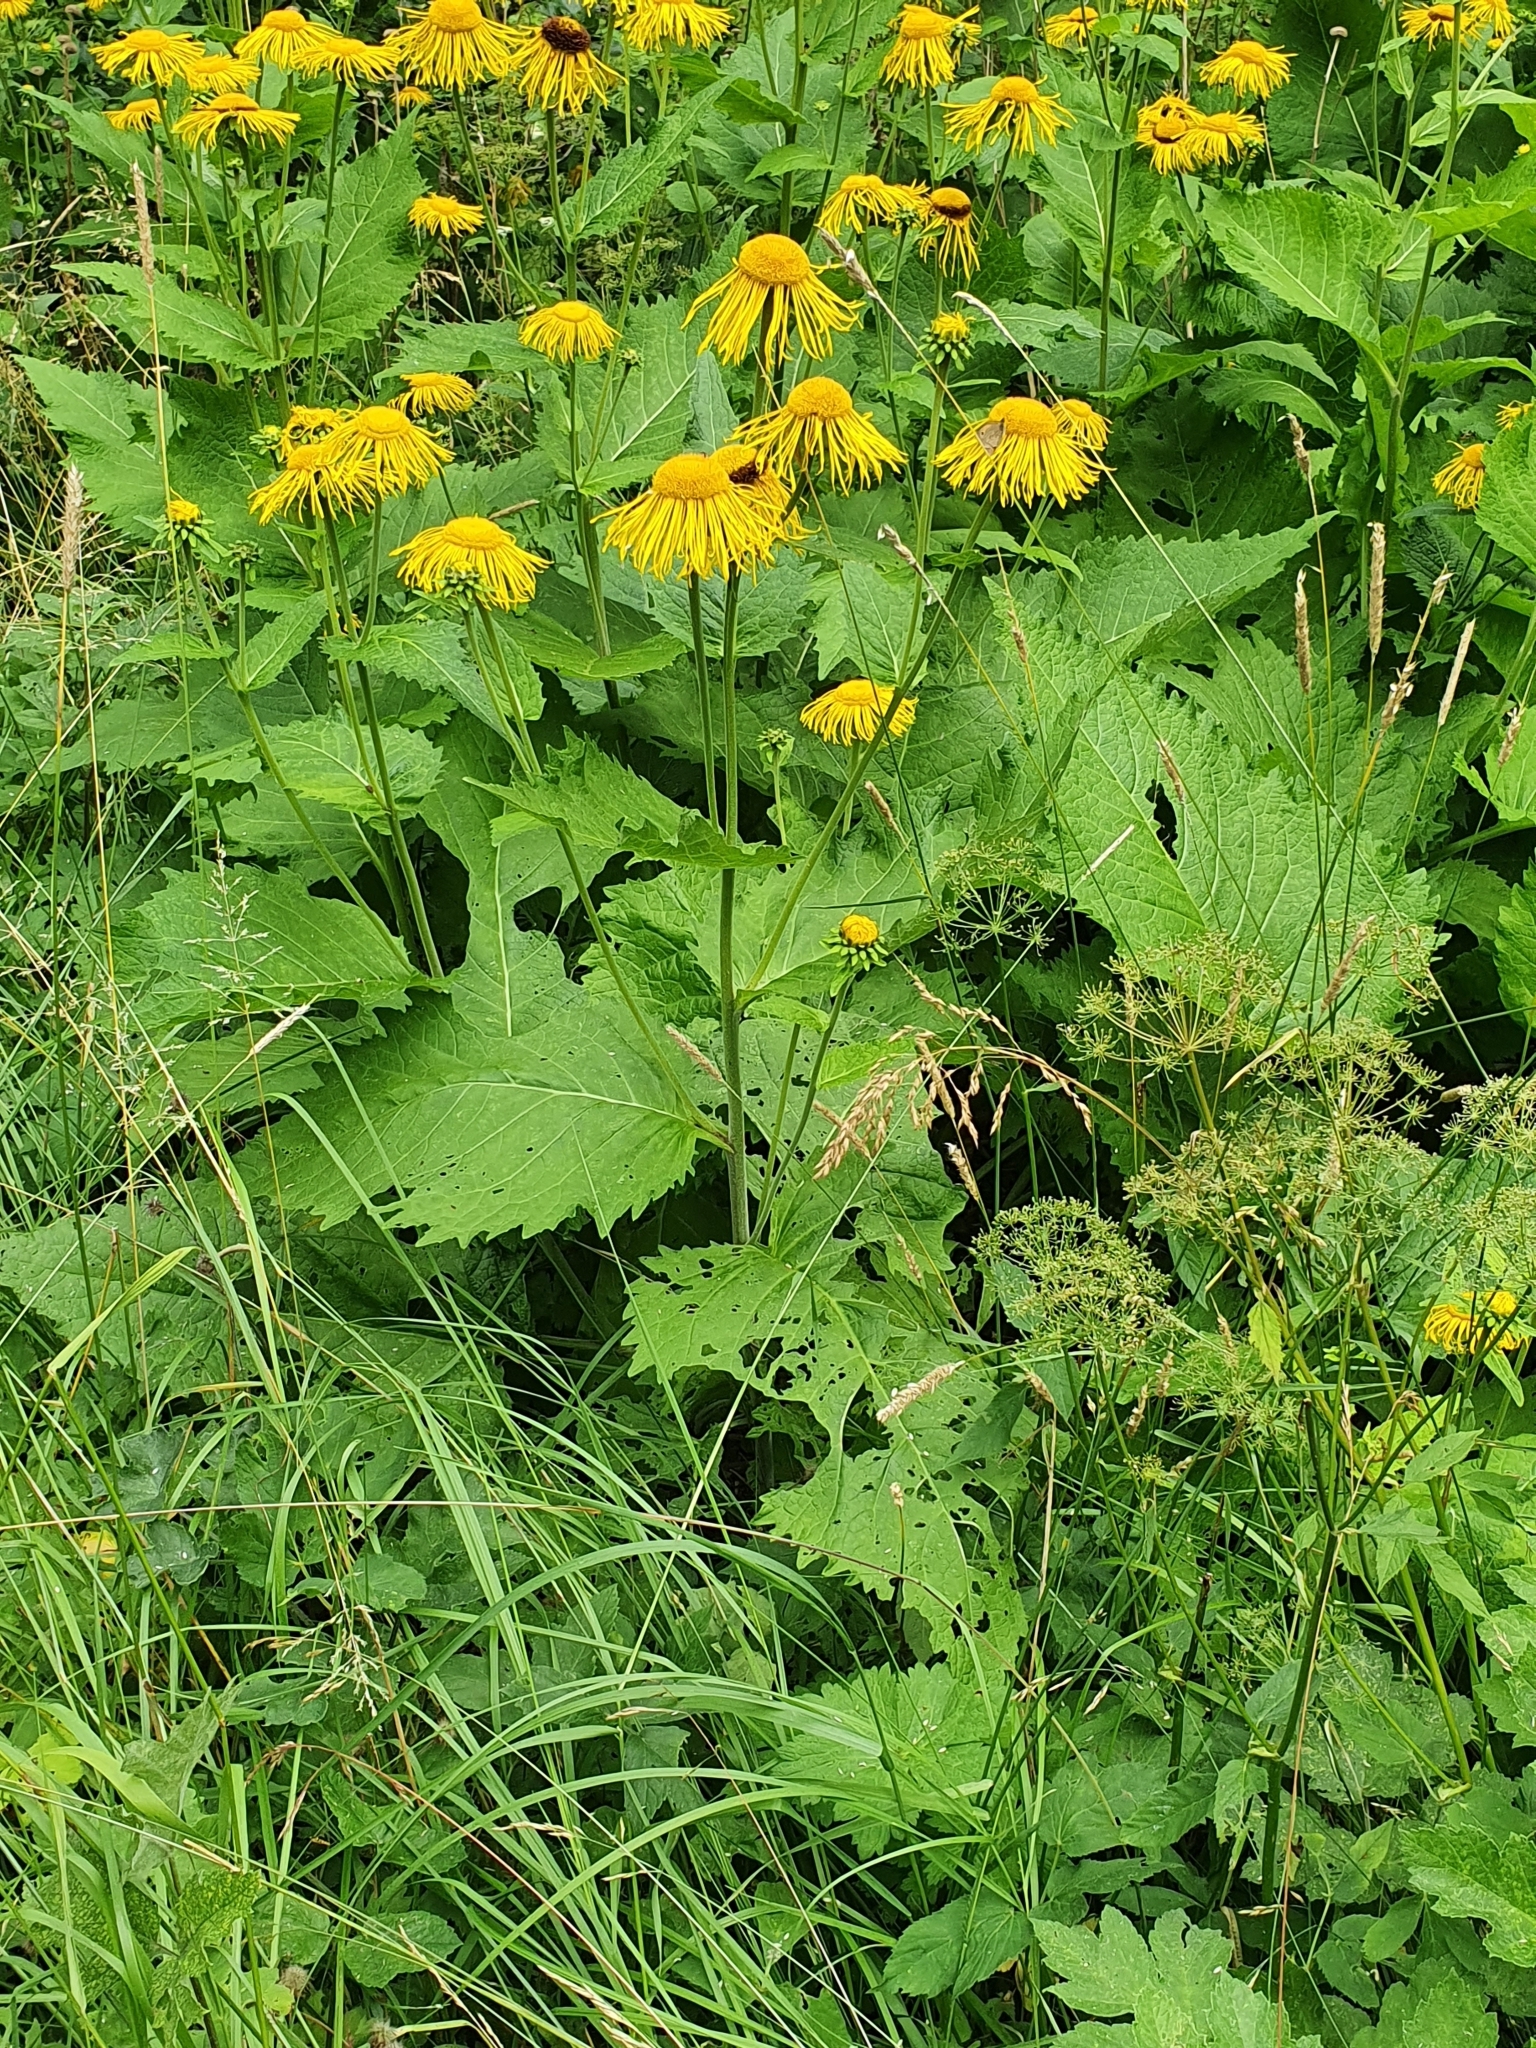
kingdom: Plantae
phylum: Tracheophyta
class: Magnoliopsida
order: Asterales
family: Asteraceae
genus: Telekia
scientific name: Telekia speciosa
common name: Yellow oxeye
